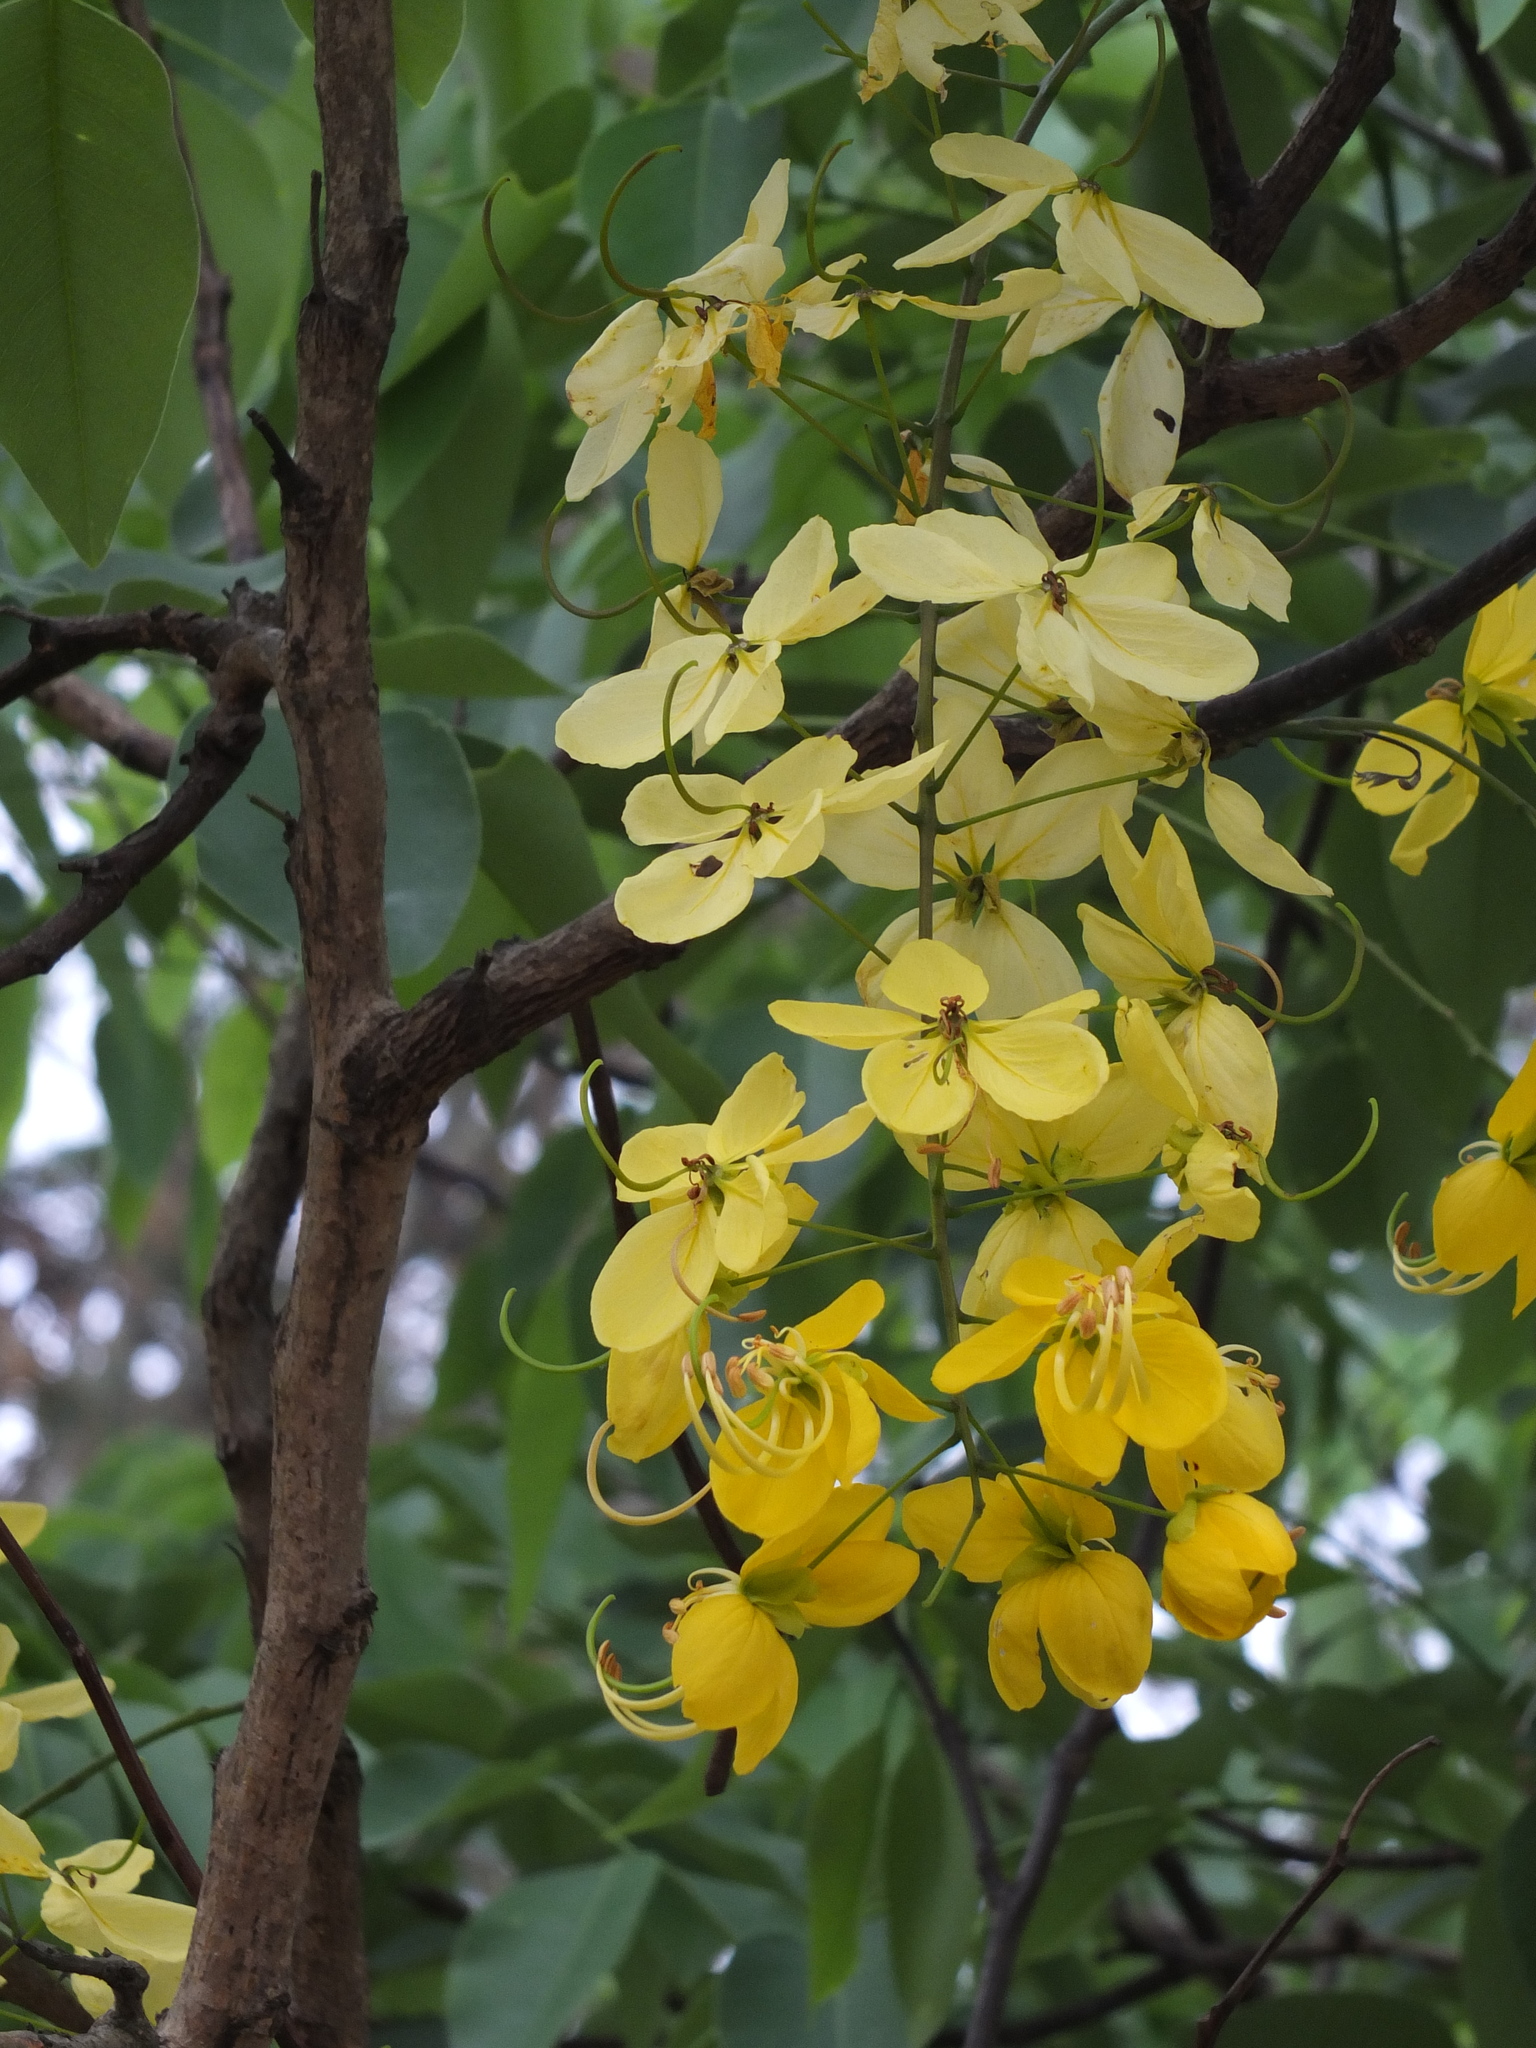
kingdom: Plantae
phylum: Tracheophyta
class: Magnoliopsida
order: Fabales
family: Fabaceae
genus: Cassia
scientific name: Cassia fistula
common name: Golden shower
